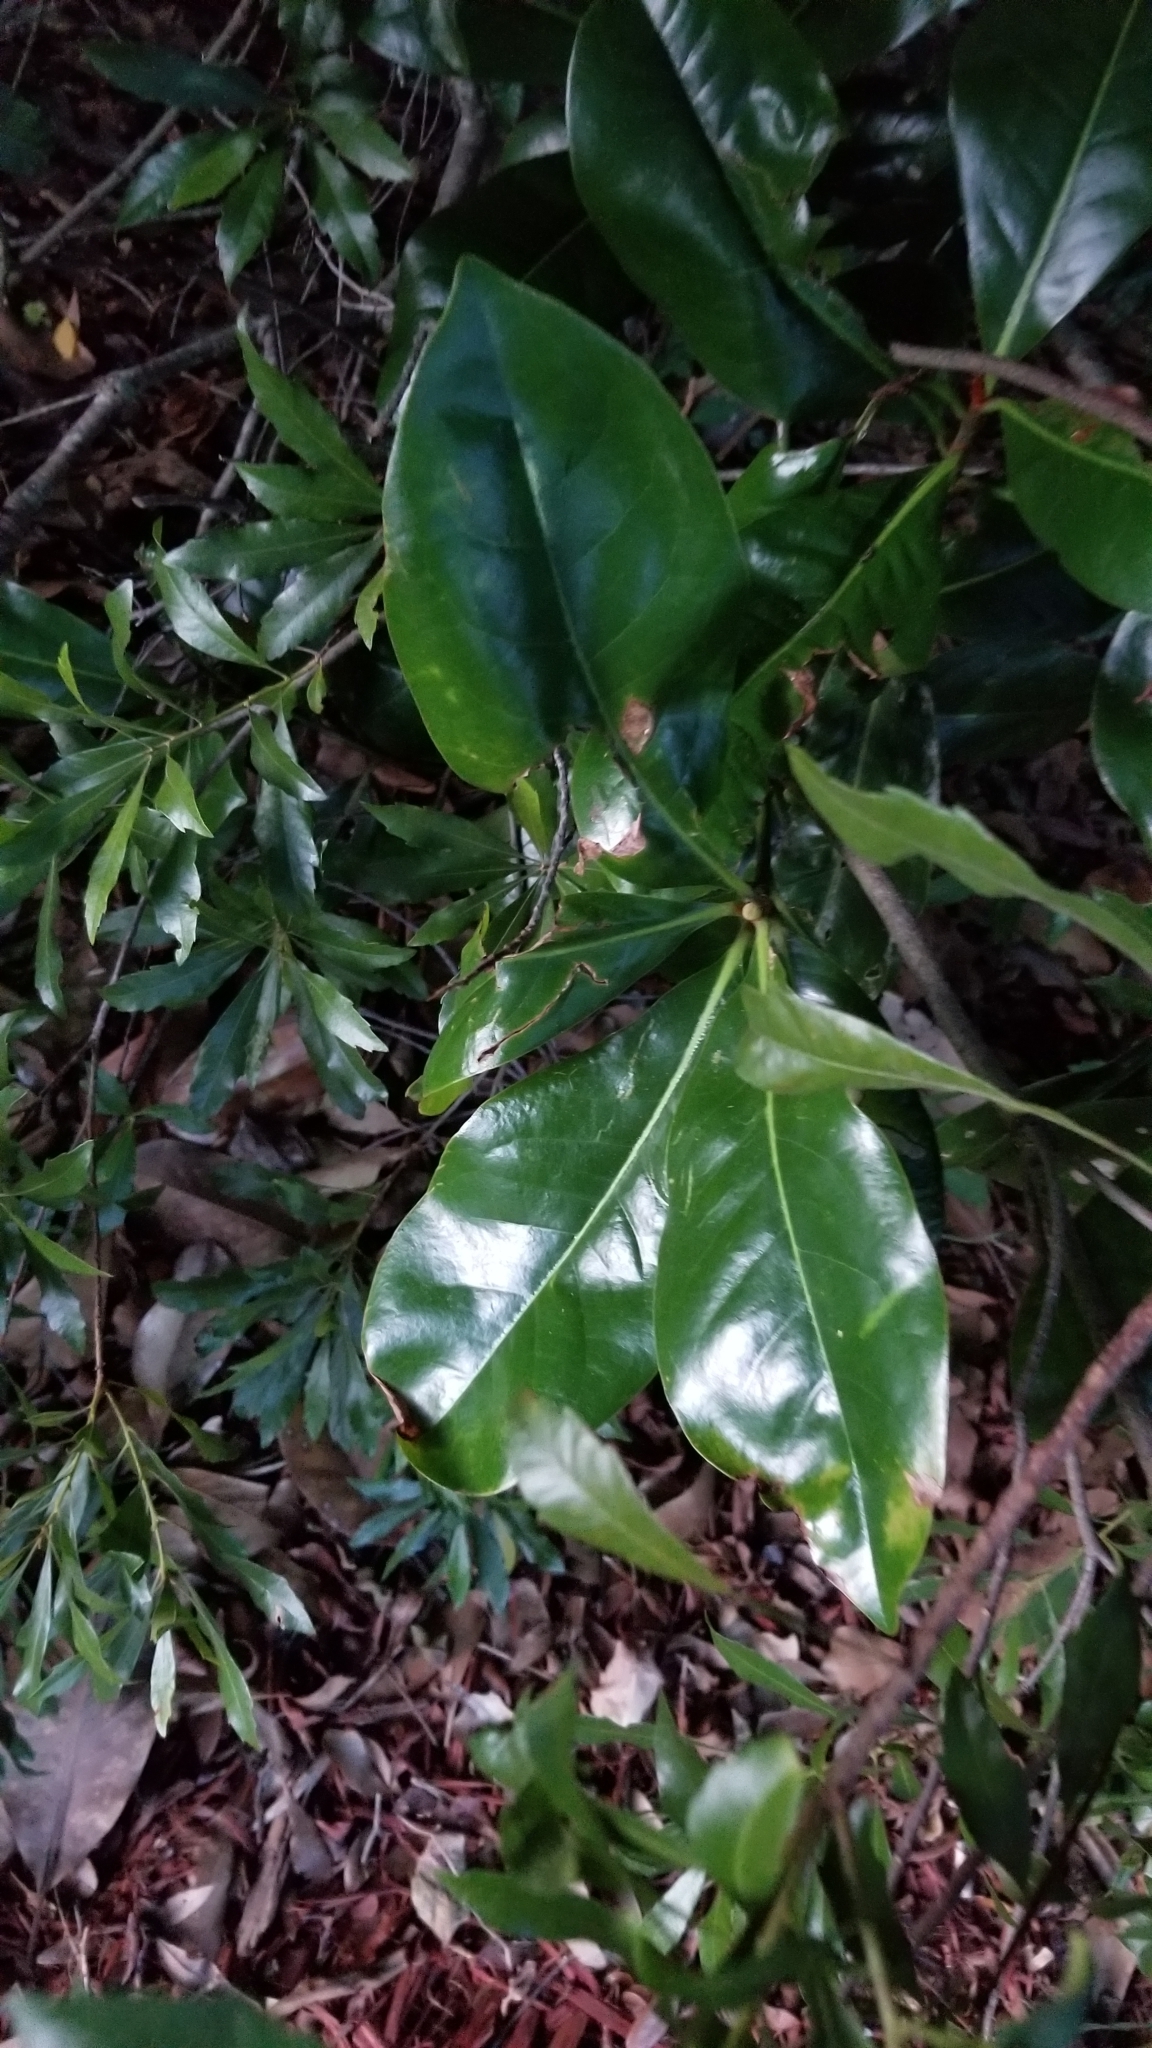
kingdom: Plantae
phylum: Tracheophyta
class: Magnoliopsida
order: Magnoliales
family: Magnoliaceae
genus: Magnolia
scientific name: Magnolia grandiflora
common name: Southern magnolia
